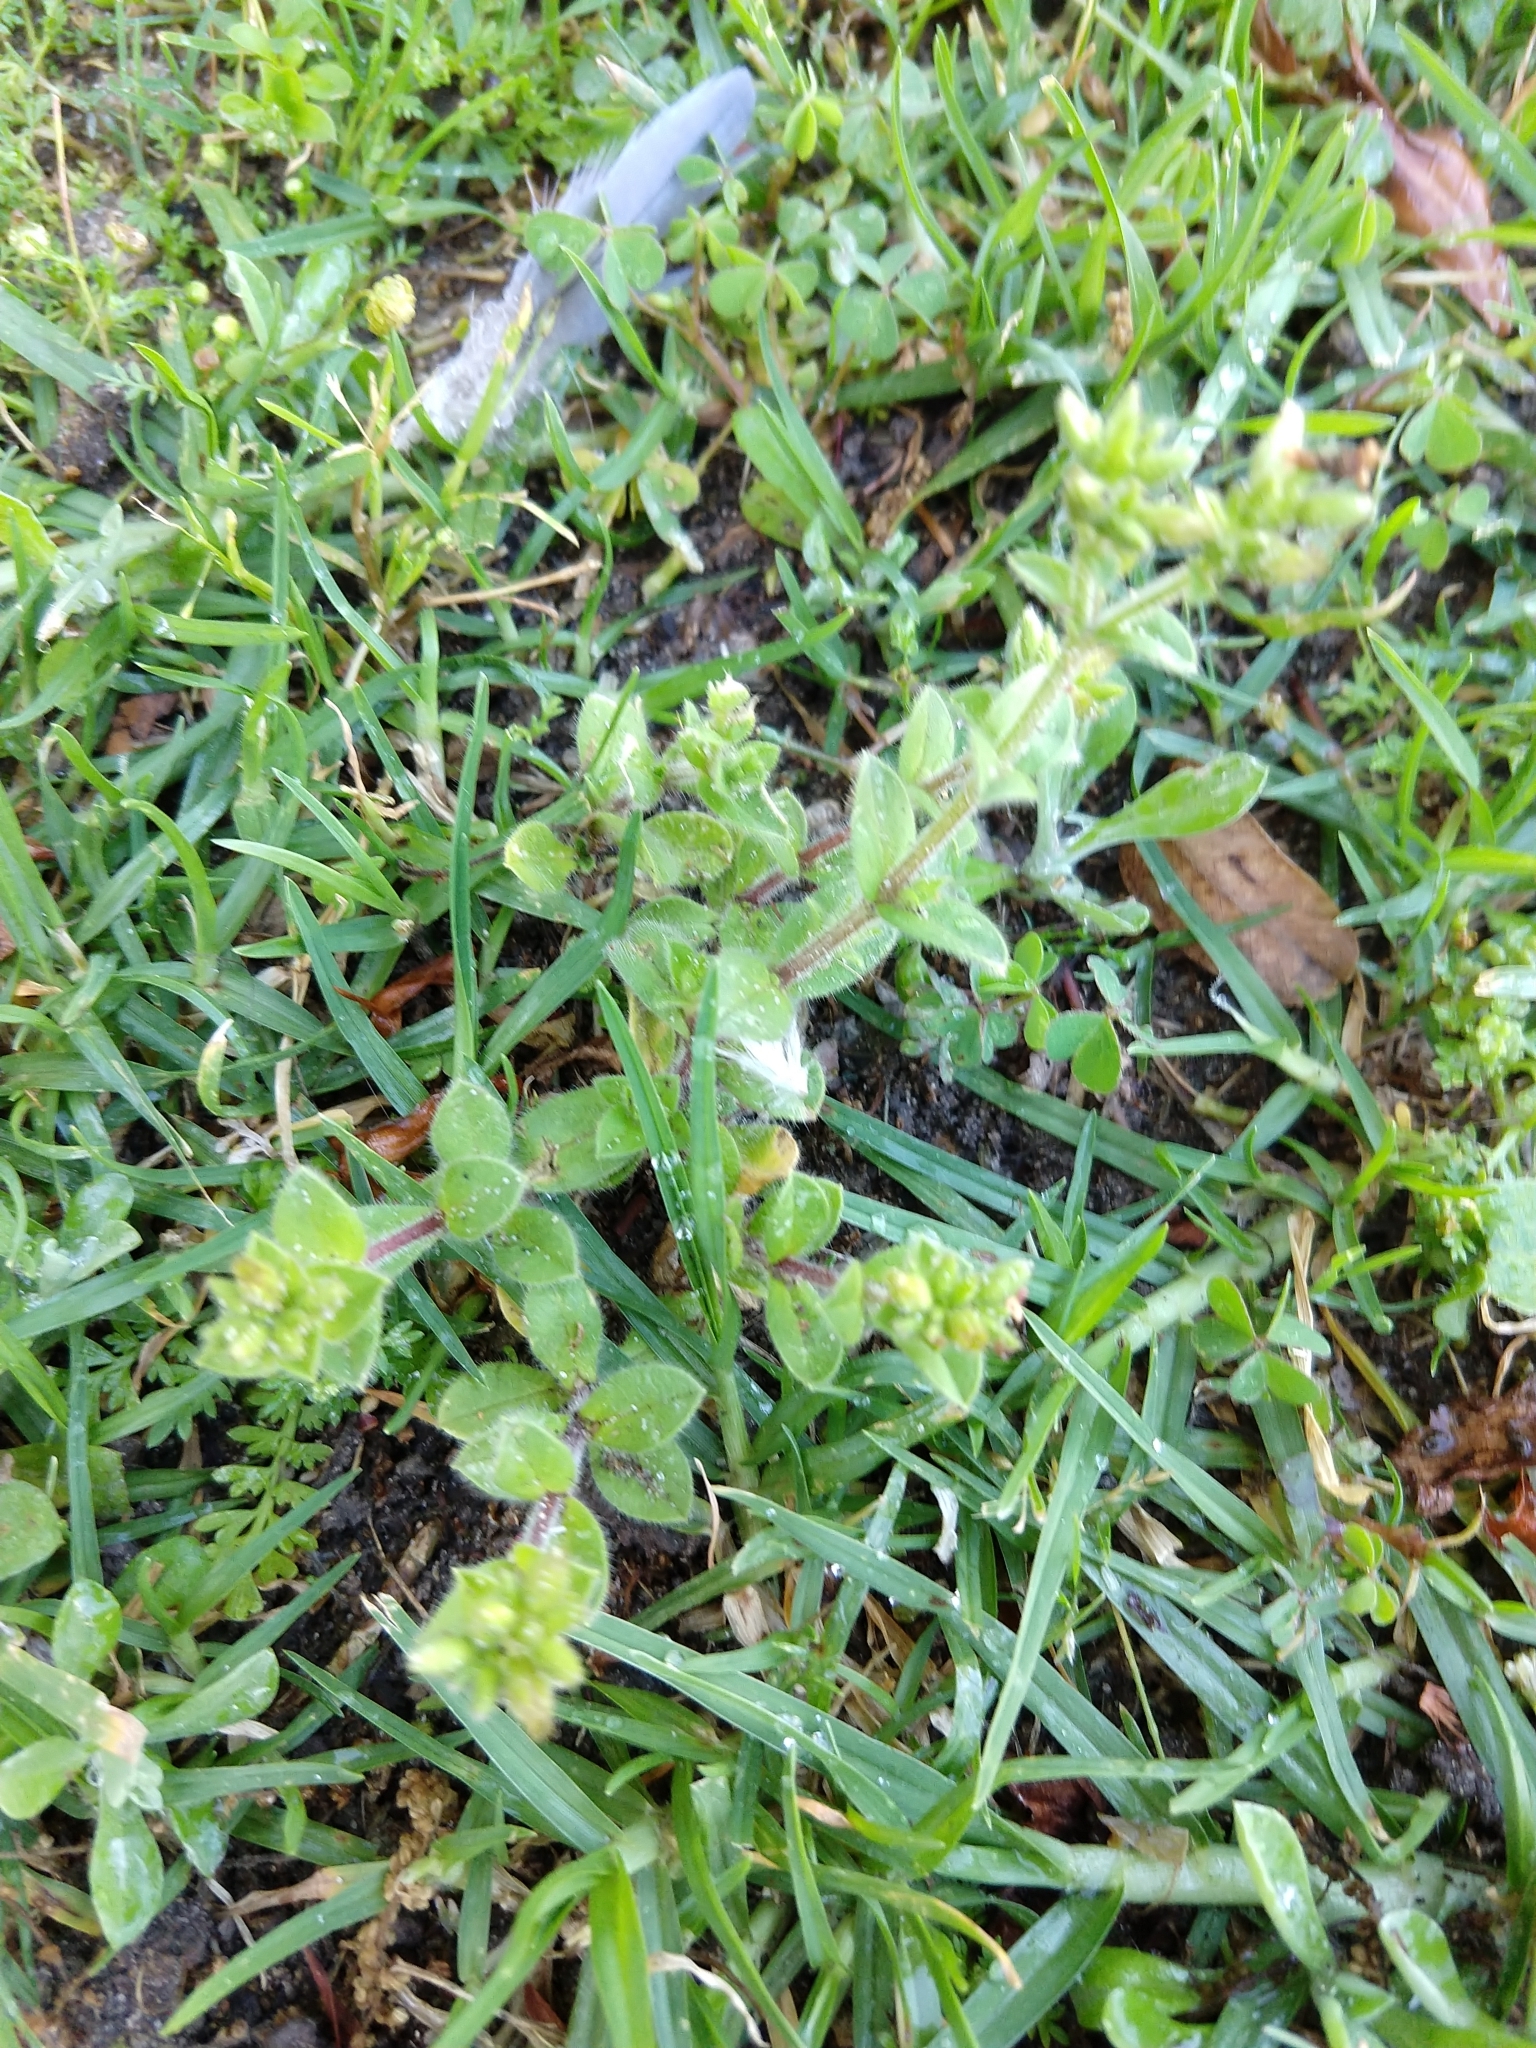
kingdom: Plantae
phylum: Tracheophyta
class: Magnoliopsida
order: Caryophyllales
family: Caryophyllaceae
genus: Cerastium
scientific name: Cerastium glomeratum
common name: Sticky chickweed
